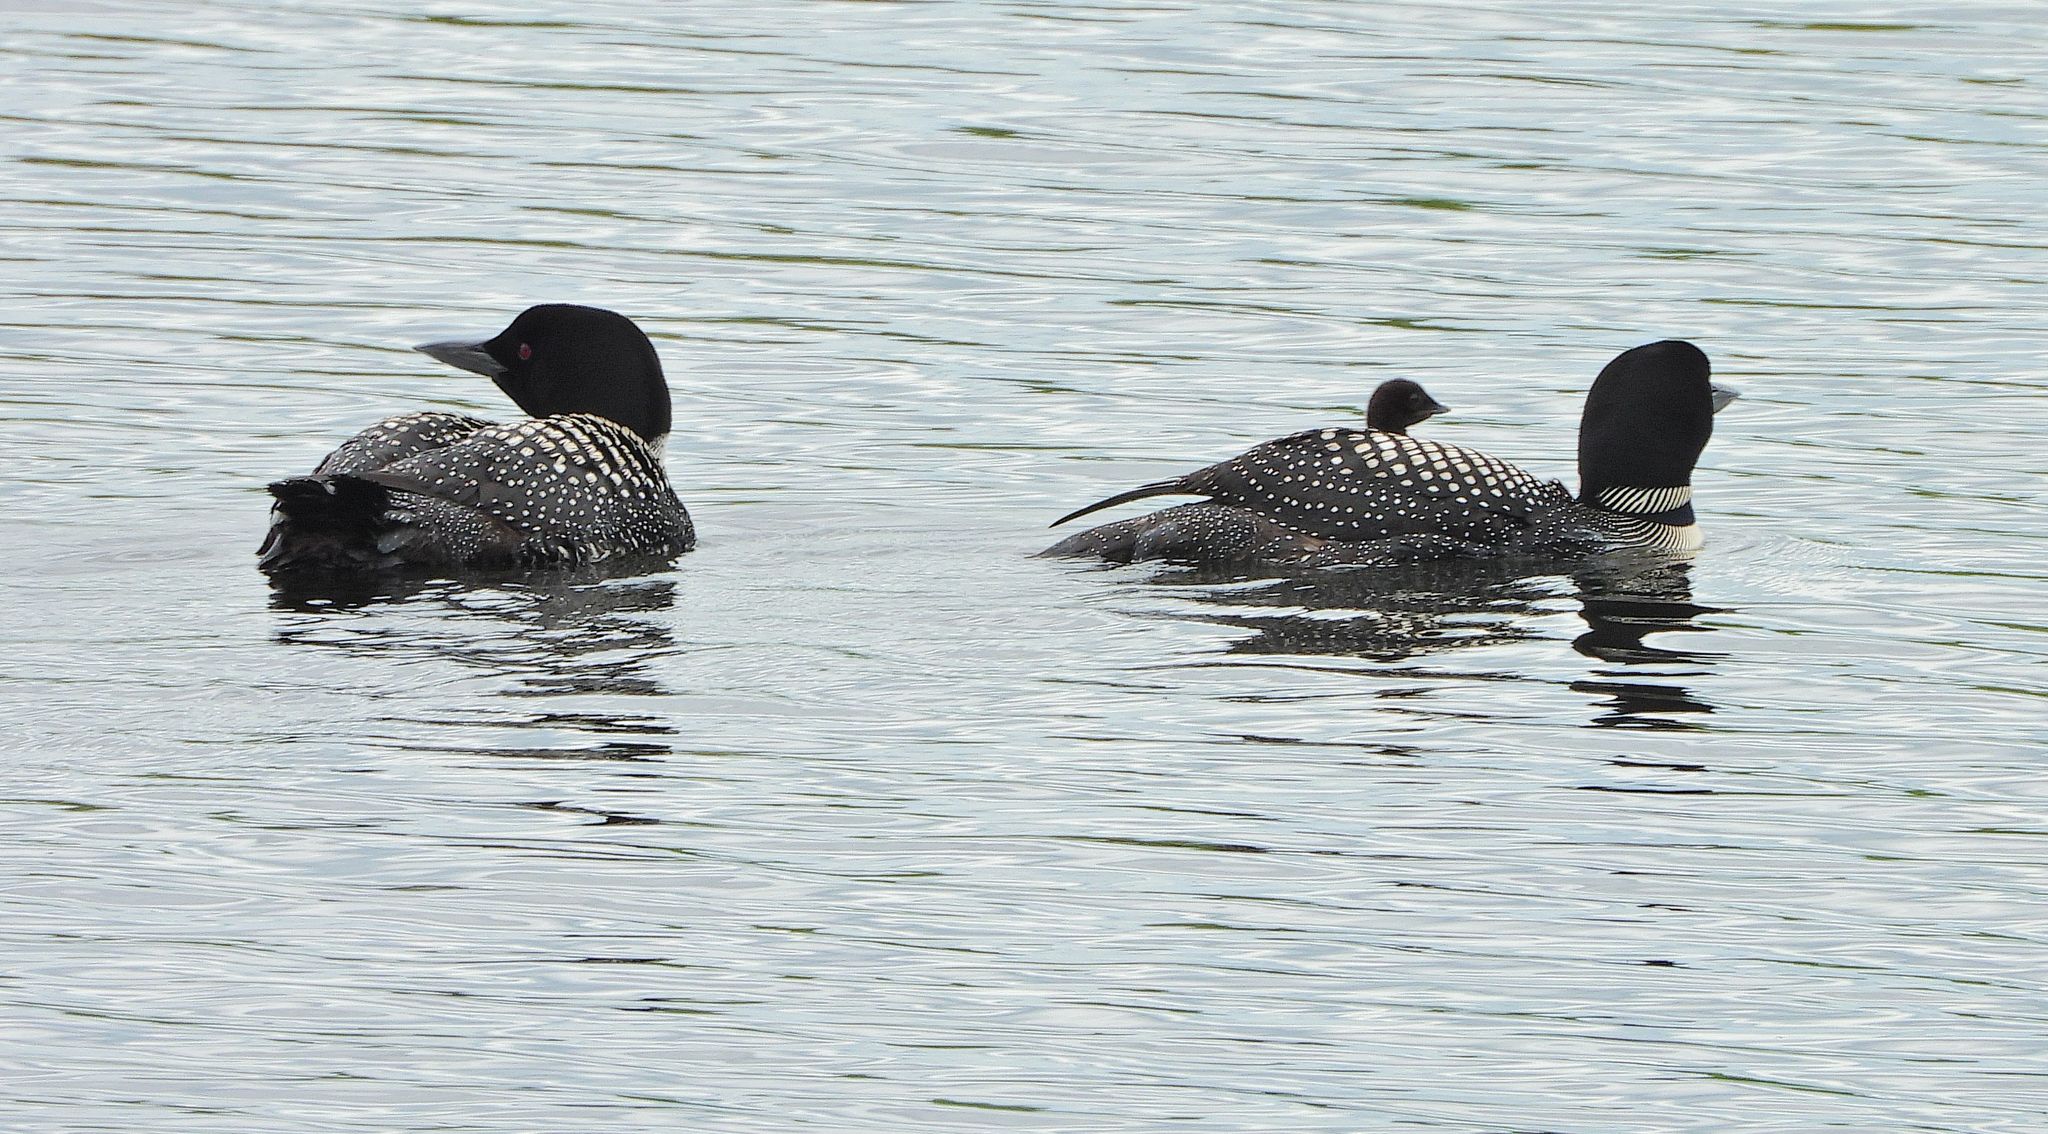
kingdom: Animalia
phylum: Chordata
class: Aves
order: Gaviiformes
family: Gaviidae
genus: Gavia
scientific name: Gavia immer
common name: Common loon
